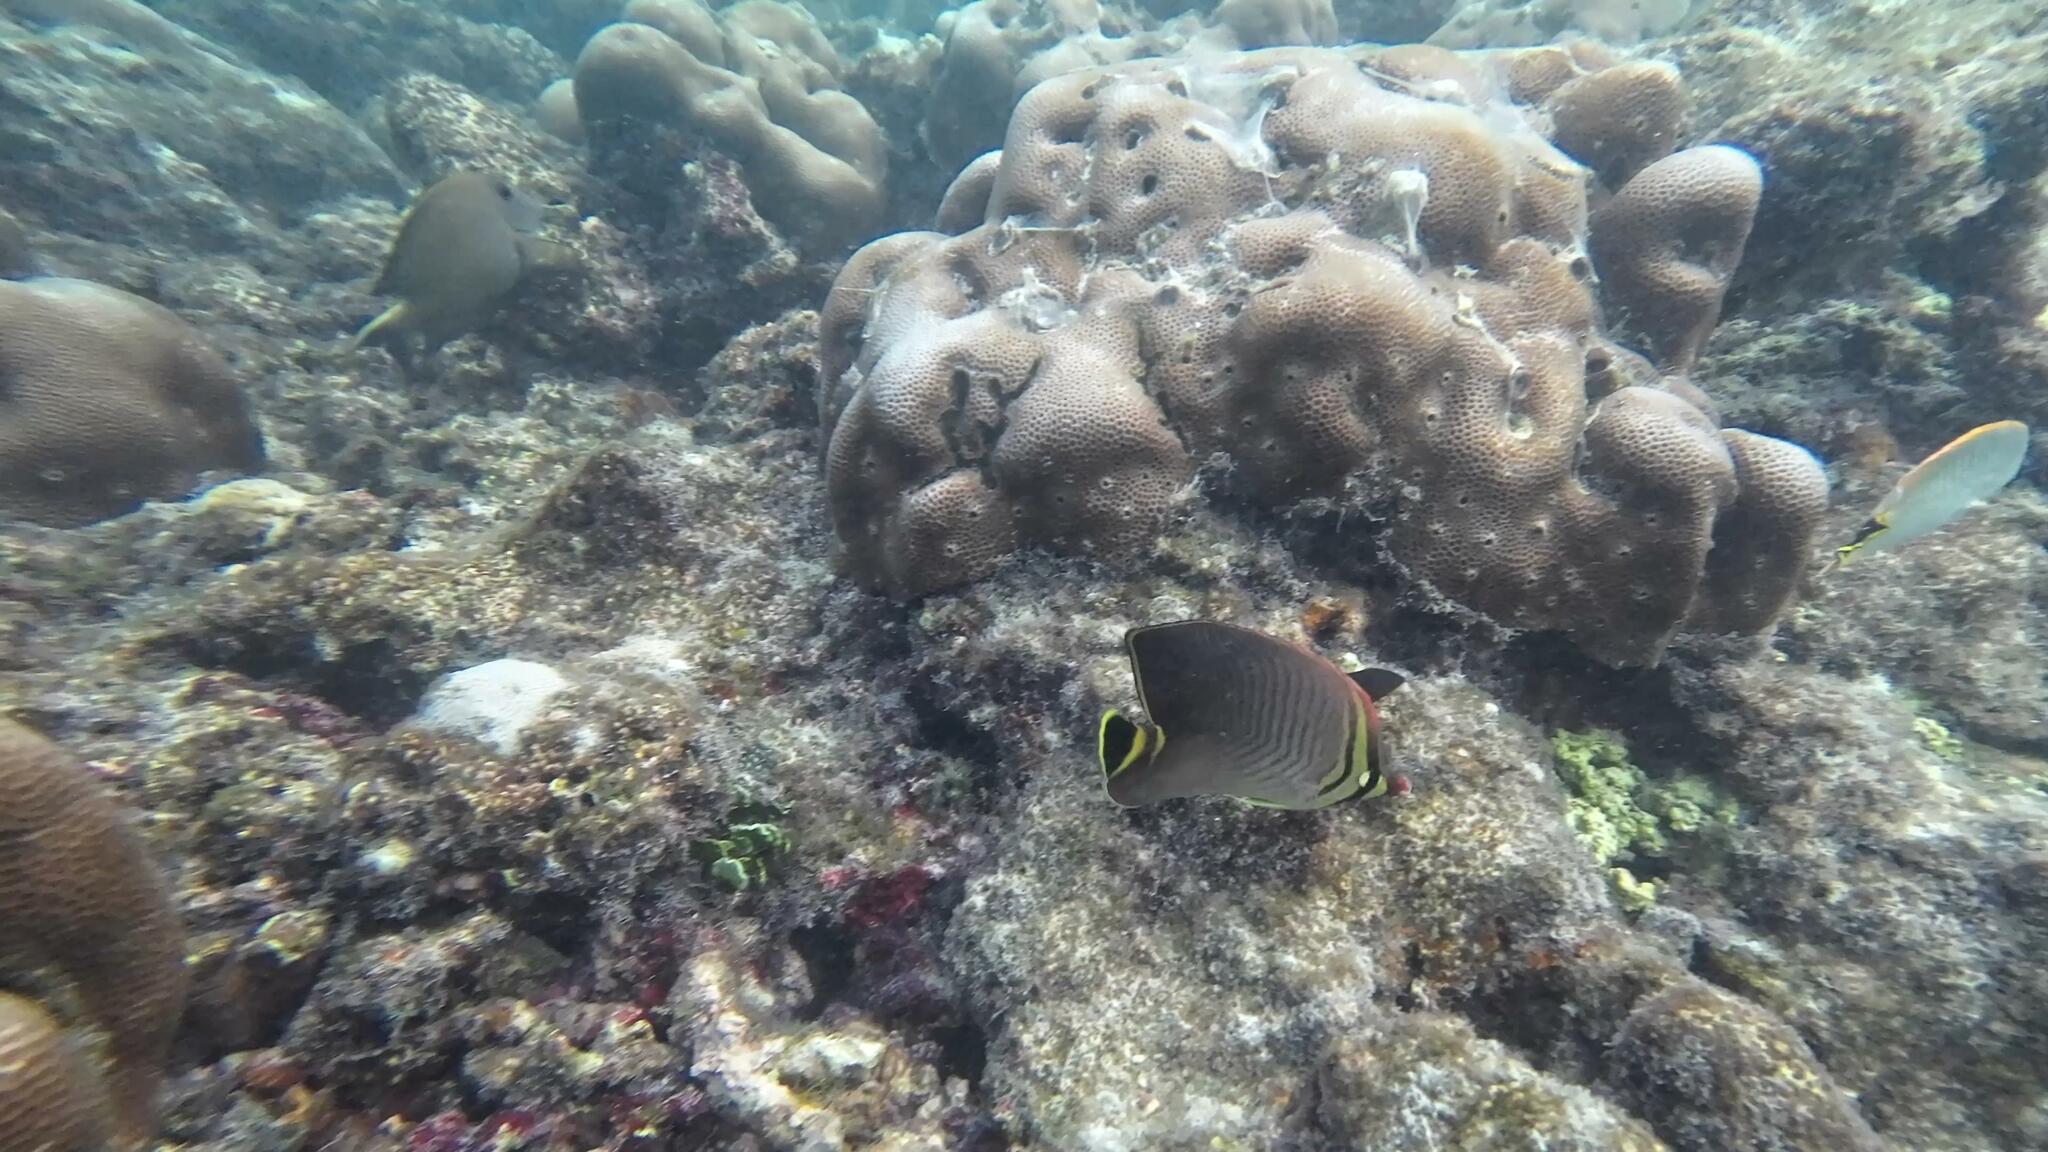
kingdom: Animalia
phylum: Chordata
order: Perciformes
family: Chaetodontidae
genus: Chaetodon
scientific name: Chaetodon triangulum
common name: Triangular butterflyfish
